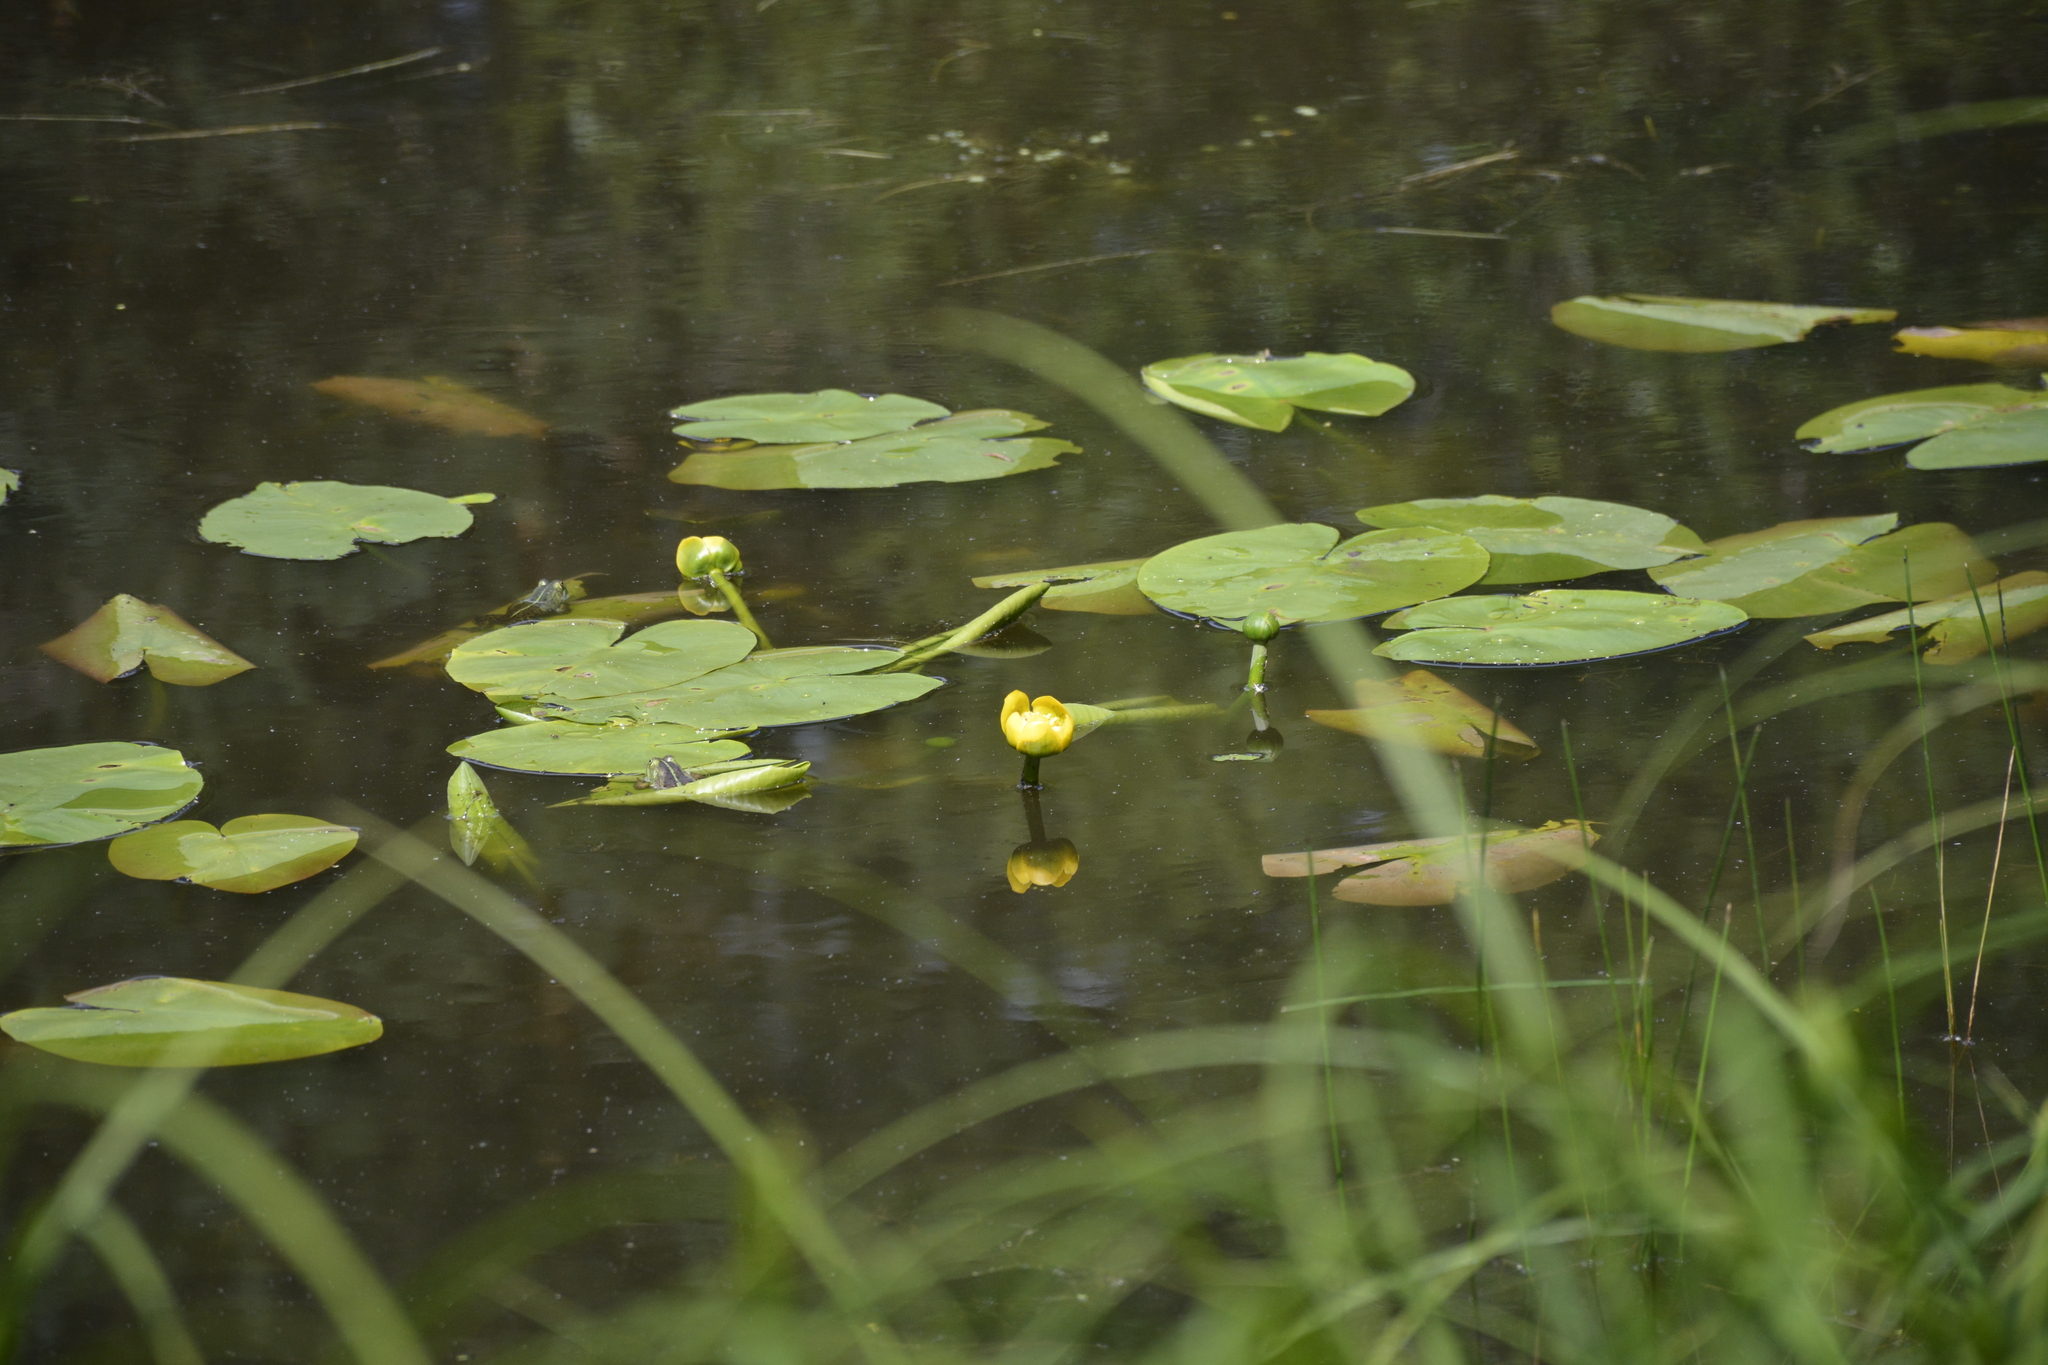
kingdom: Plantae
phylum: Tracheophyta
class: Magnoliopsida
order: Nymphaeales
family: Nymphaeaceae
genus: Nuphar
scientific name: Nuphar lutea
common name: Yellow water-lily
